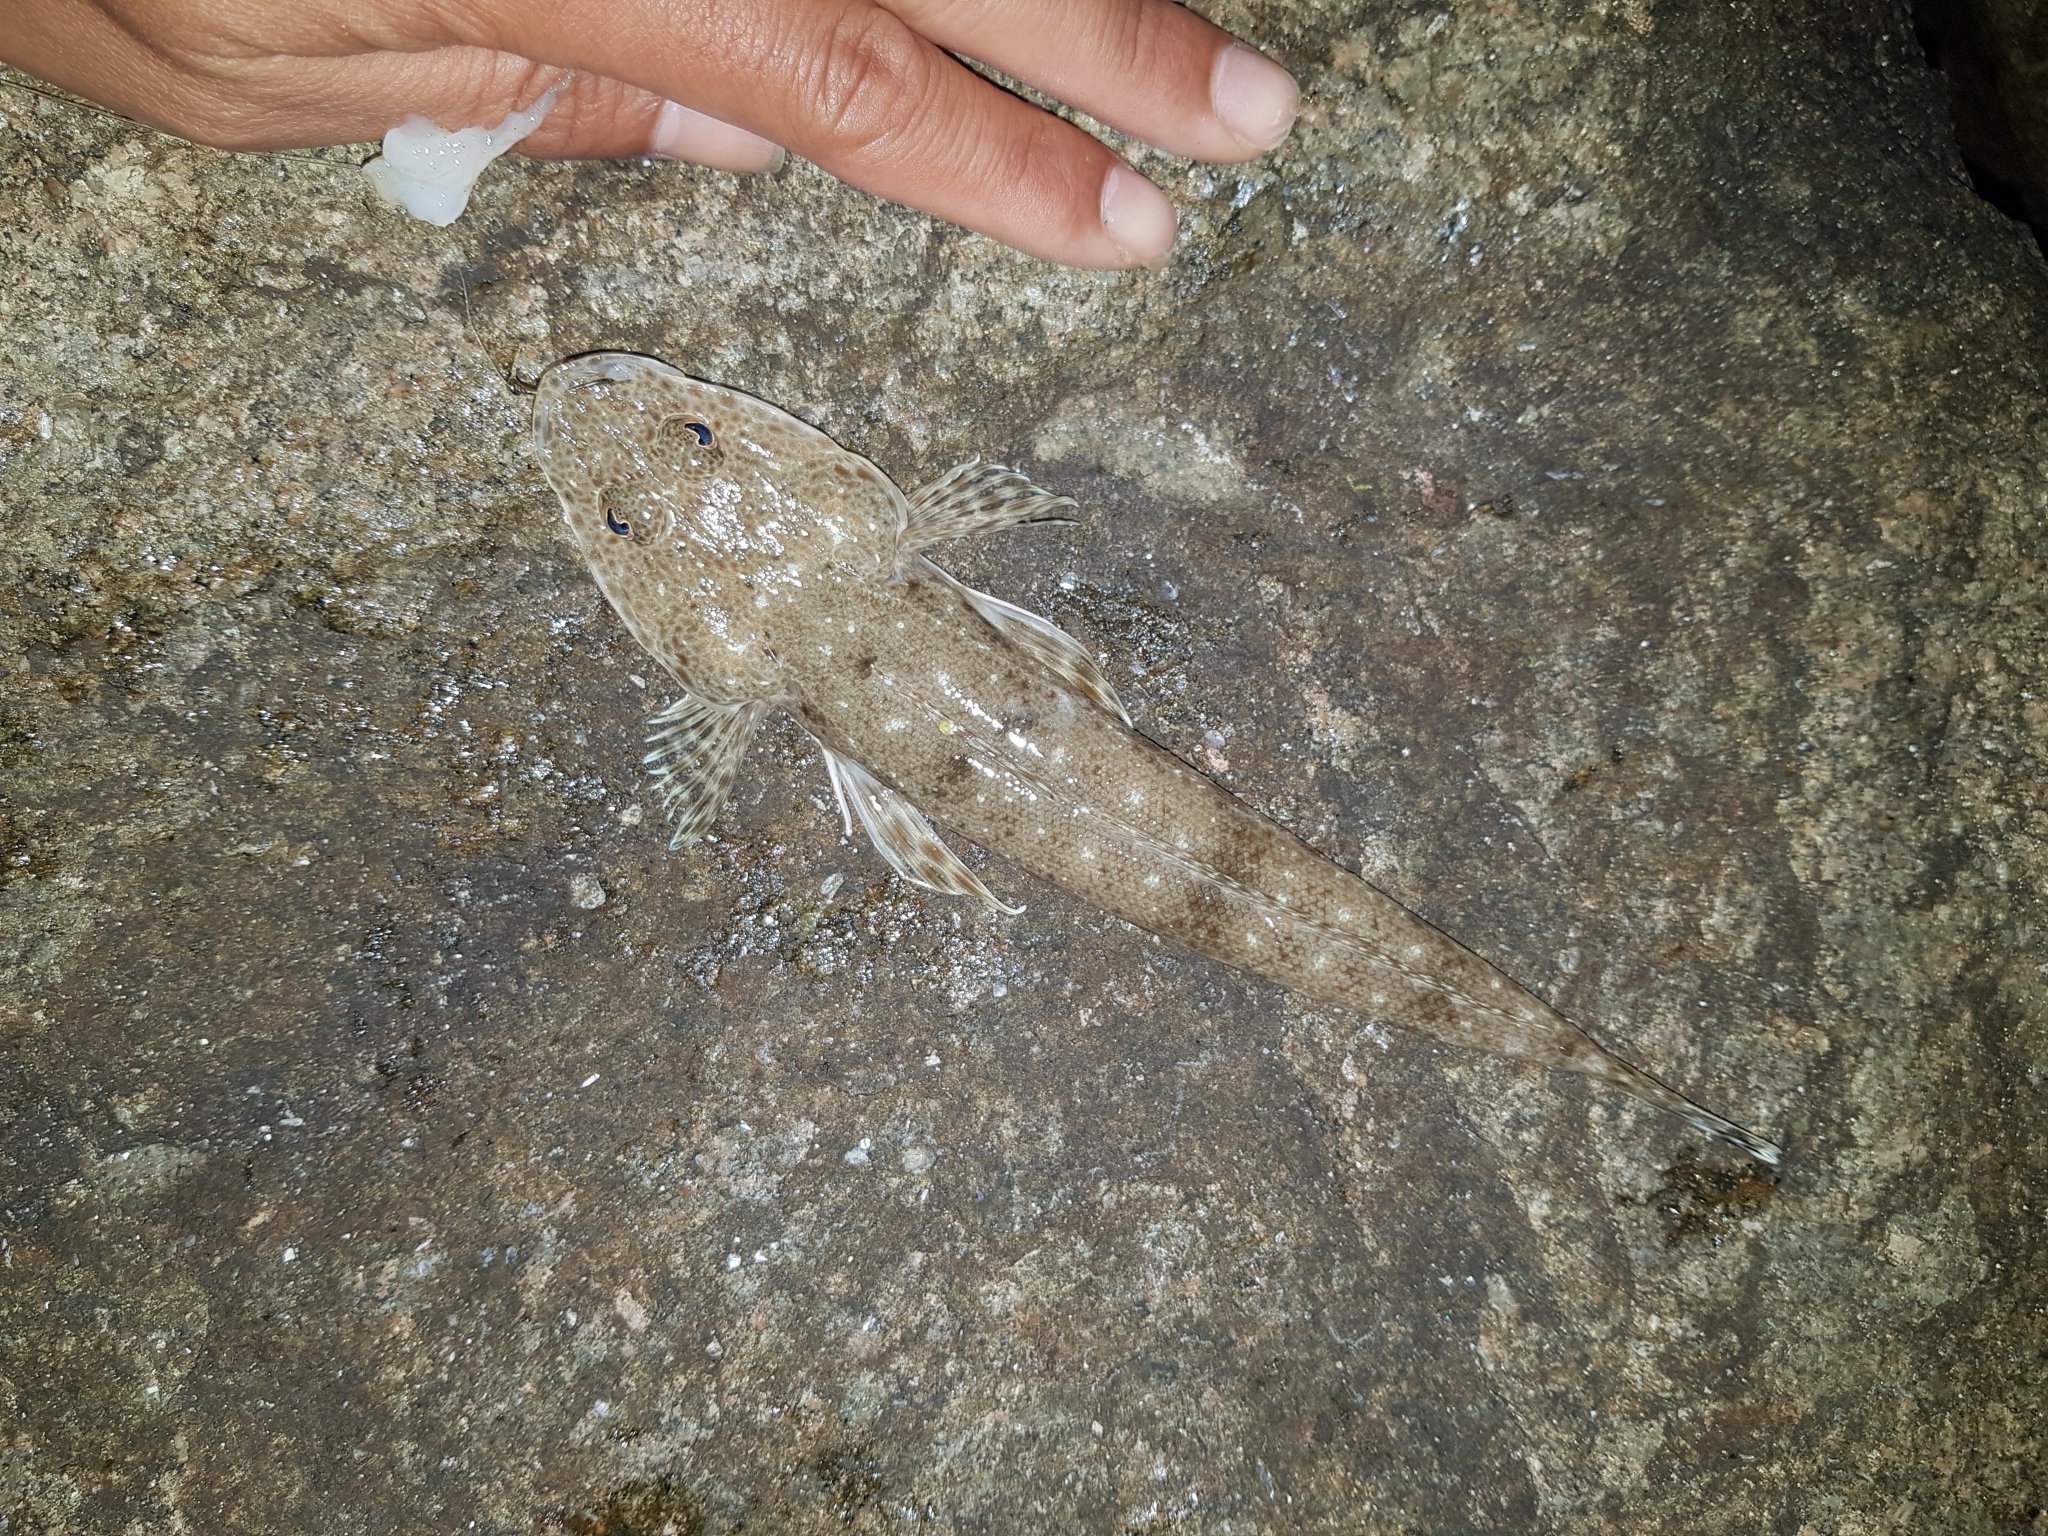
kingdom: Animalia
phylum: Chordata
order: Scorpaeniformes
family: Platycephalidae
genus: Platycephalus
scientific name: Platycephalus bassensis
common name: Sand flathead
